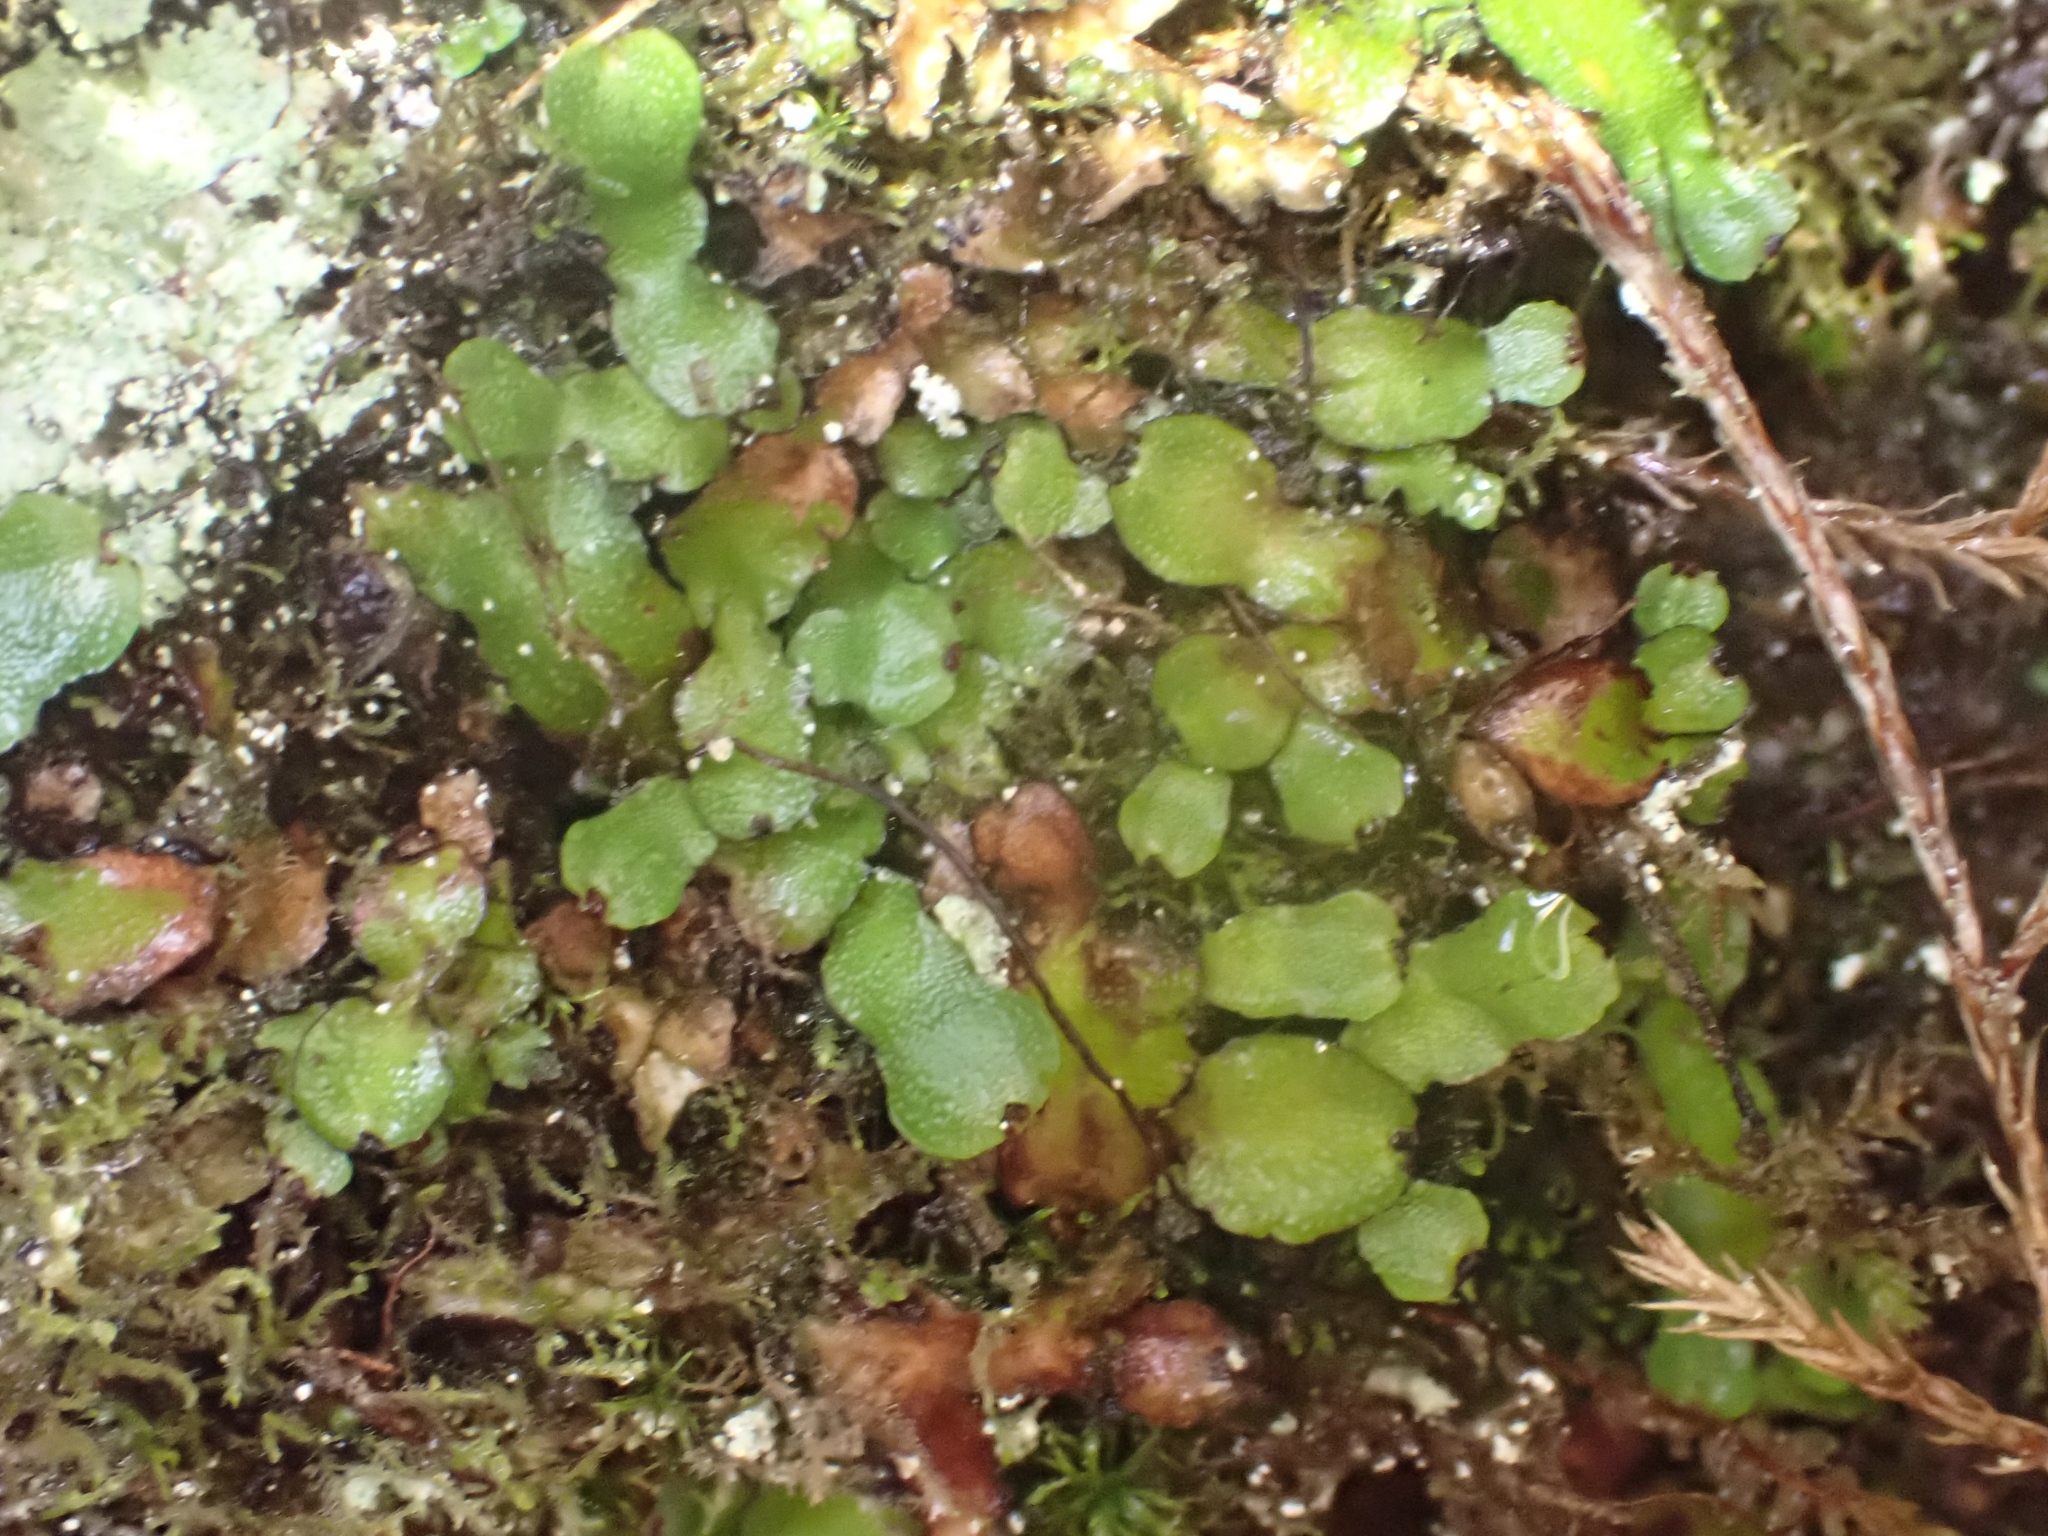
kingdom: Plantae
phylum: Marchantiophyta
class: Marchantiopsida
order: Marchantiales
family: Targioniaceae
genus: Targionia
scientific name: Targionia hypophylla
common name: Orobus-seed liverwort
